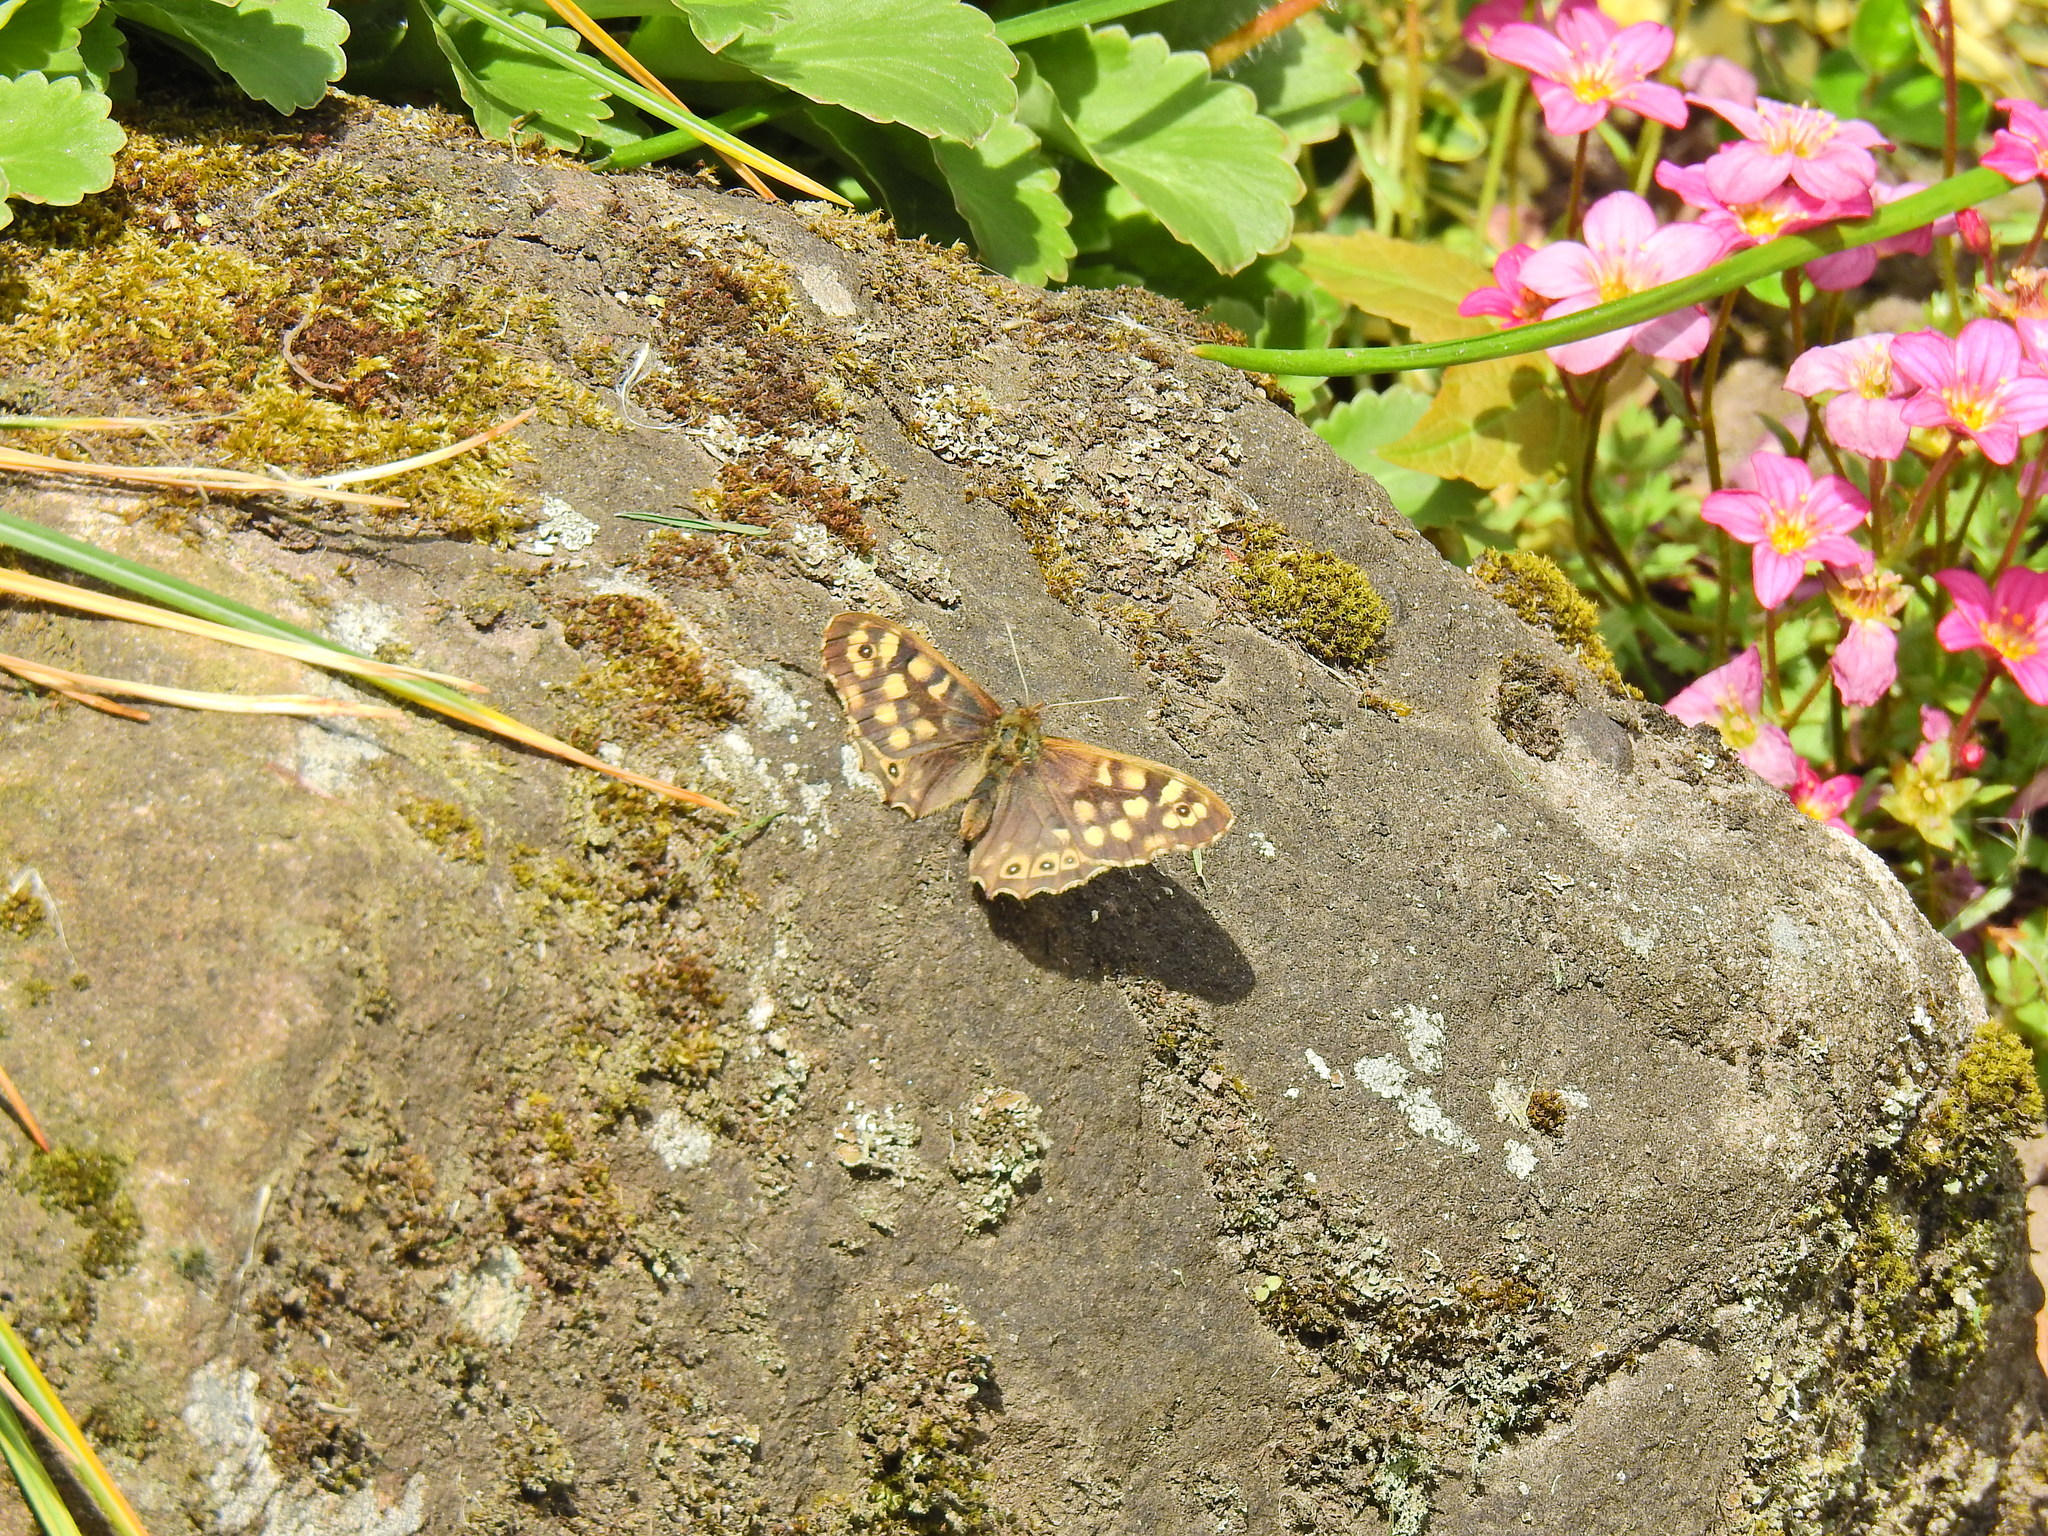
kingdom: Animalia
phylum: Arthropoda
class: Insecta
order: Lepidoptera
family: Nymphalidae
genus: Pararge
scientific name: Pararge aegeria
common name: Speckled wood
